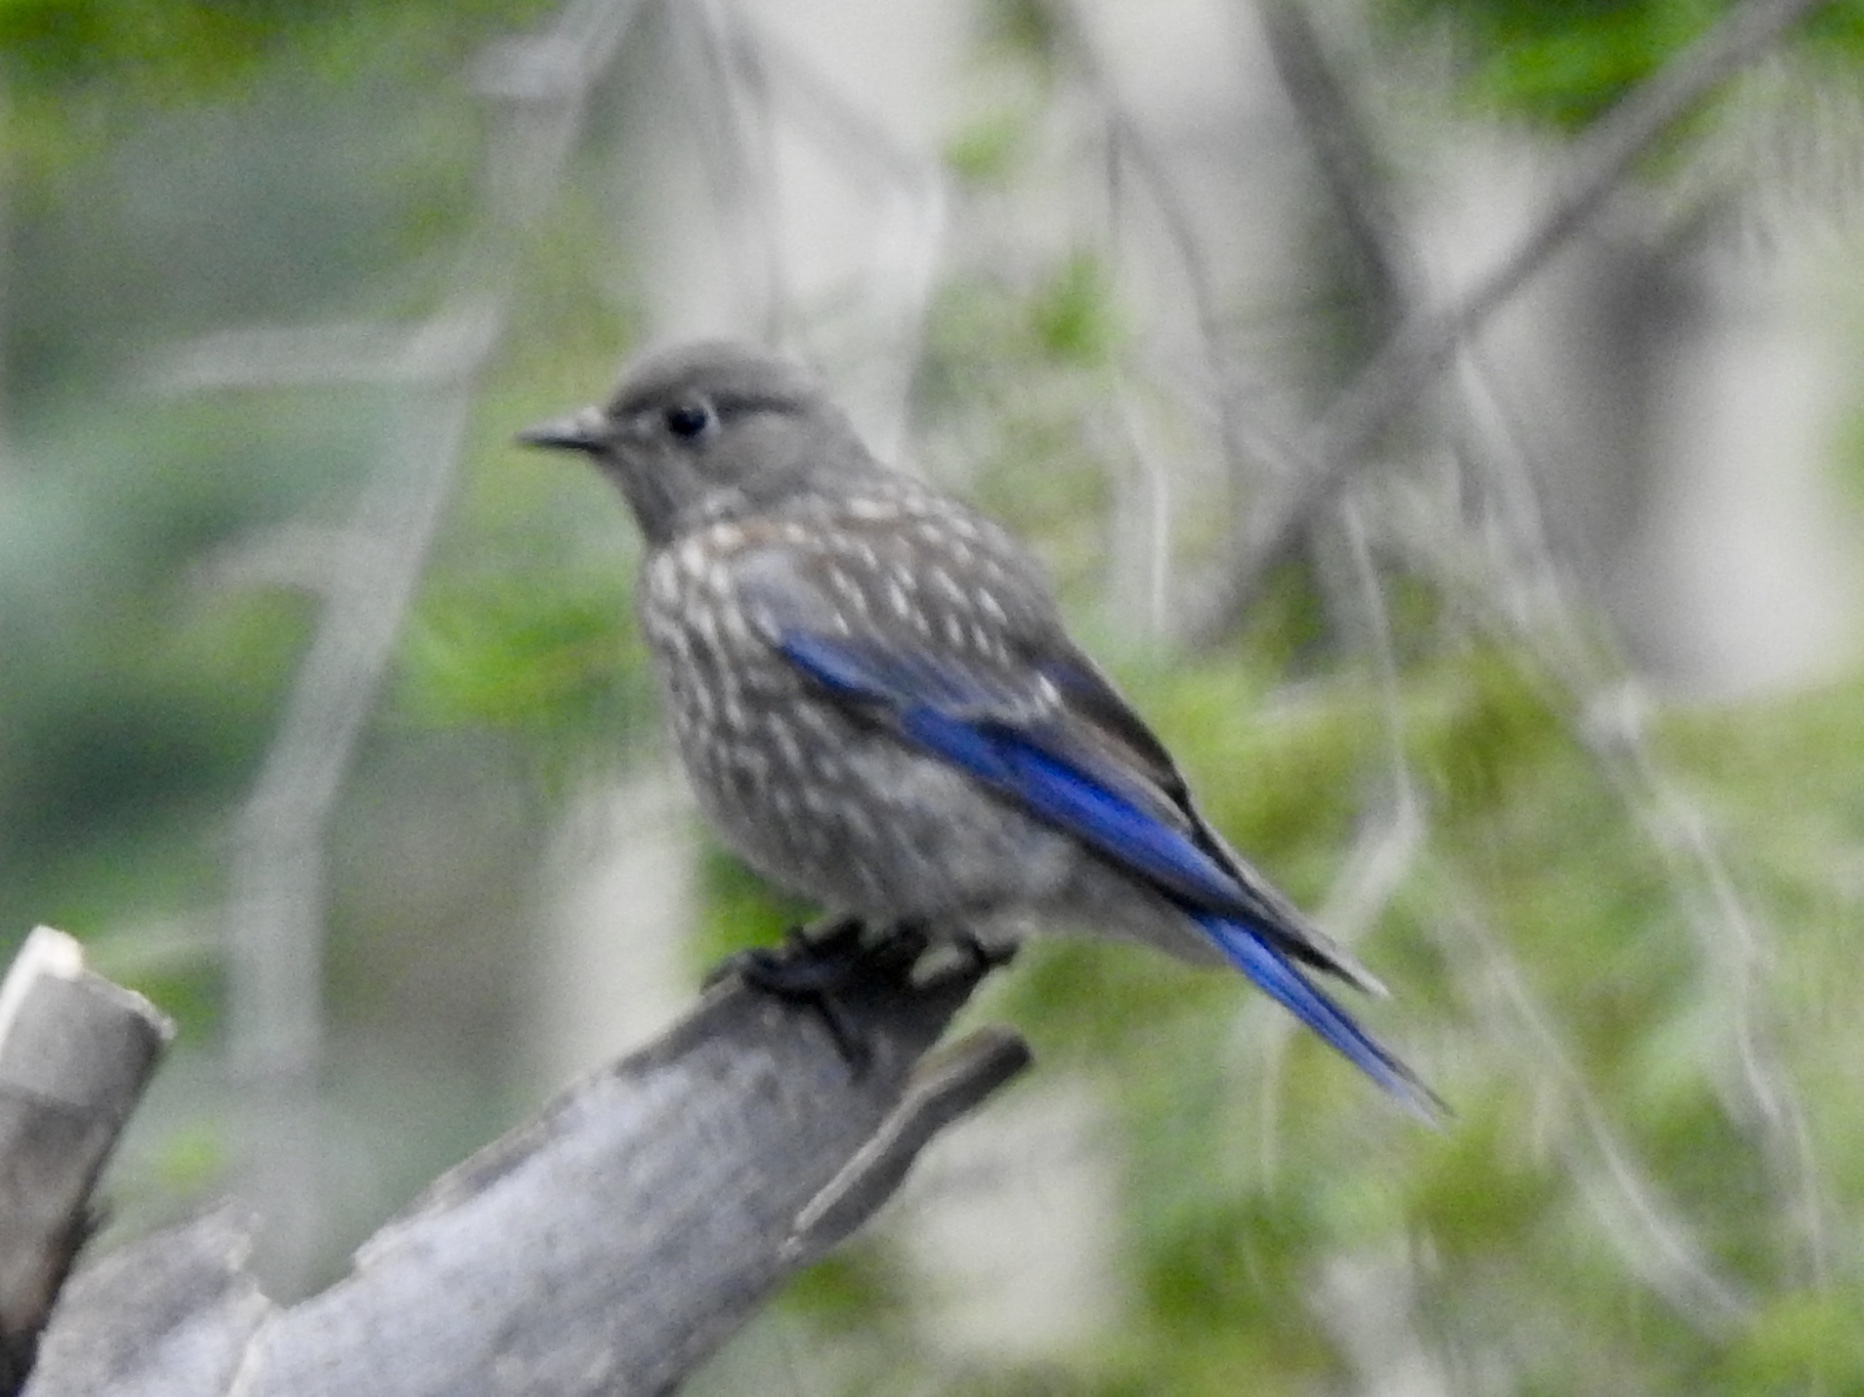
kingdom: Animalia
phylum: Chordata
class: Aves
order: Passeriformes
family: Turdidae
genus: Sialia
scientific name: Sialia mexicana
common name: Western bluebird
